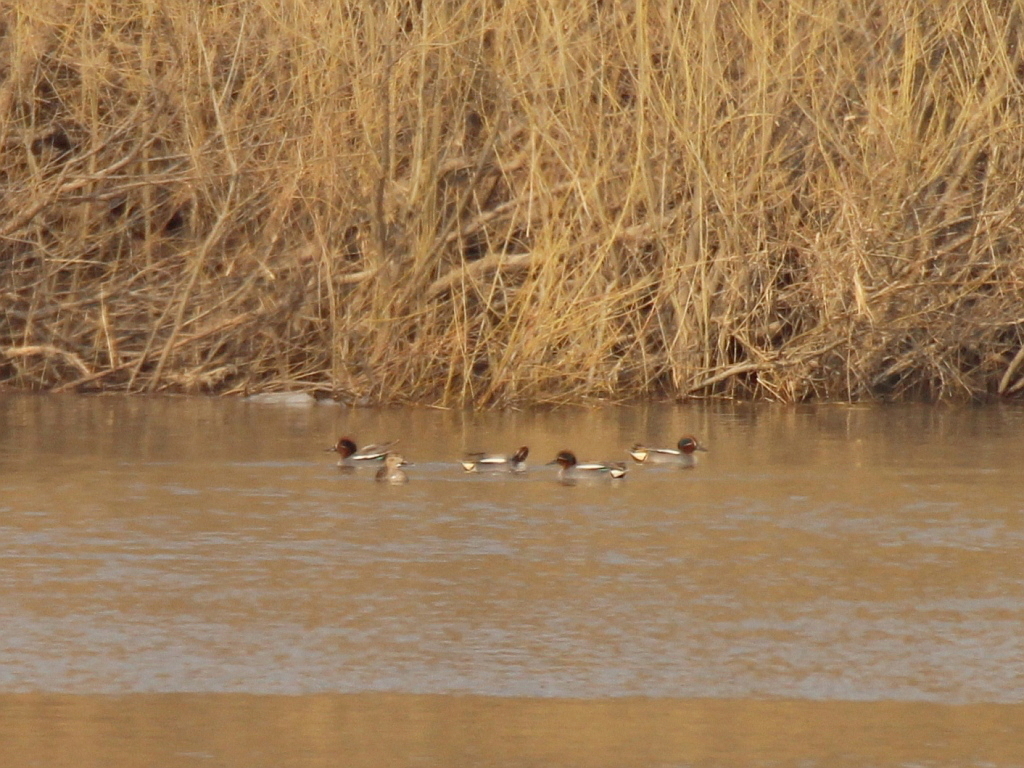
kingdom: Animalia
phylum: Chordata
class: Aves
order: Anseriformes
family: Anatidae
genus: Anas
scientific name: Anas crecca
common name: Eurasian teal
